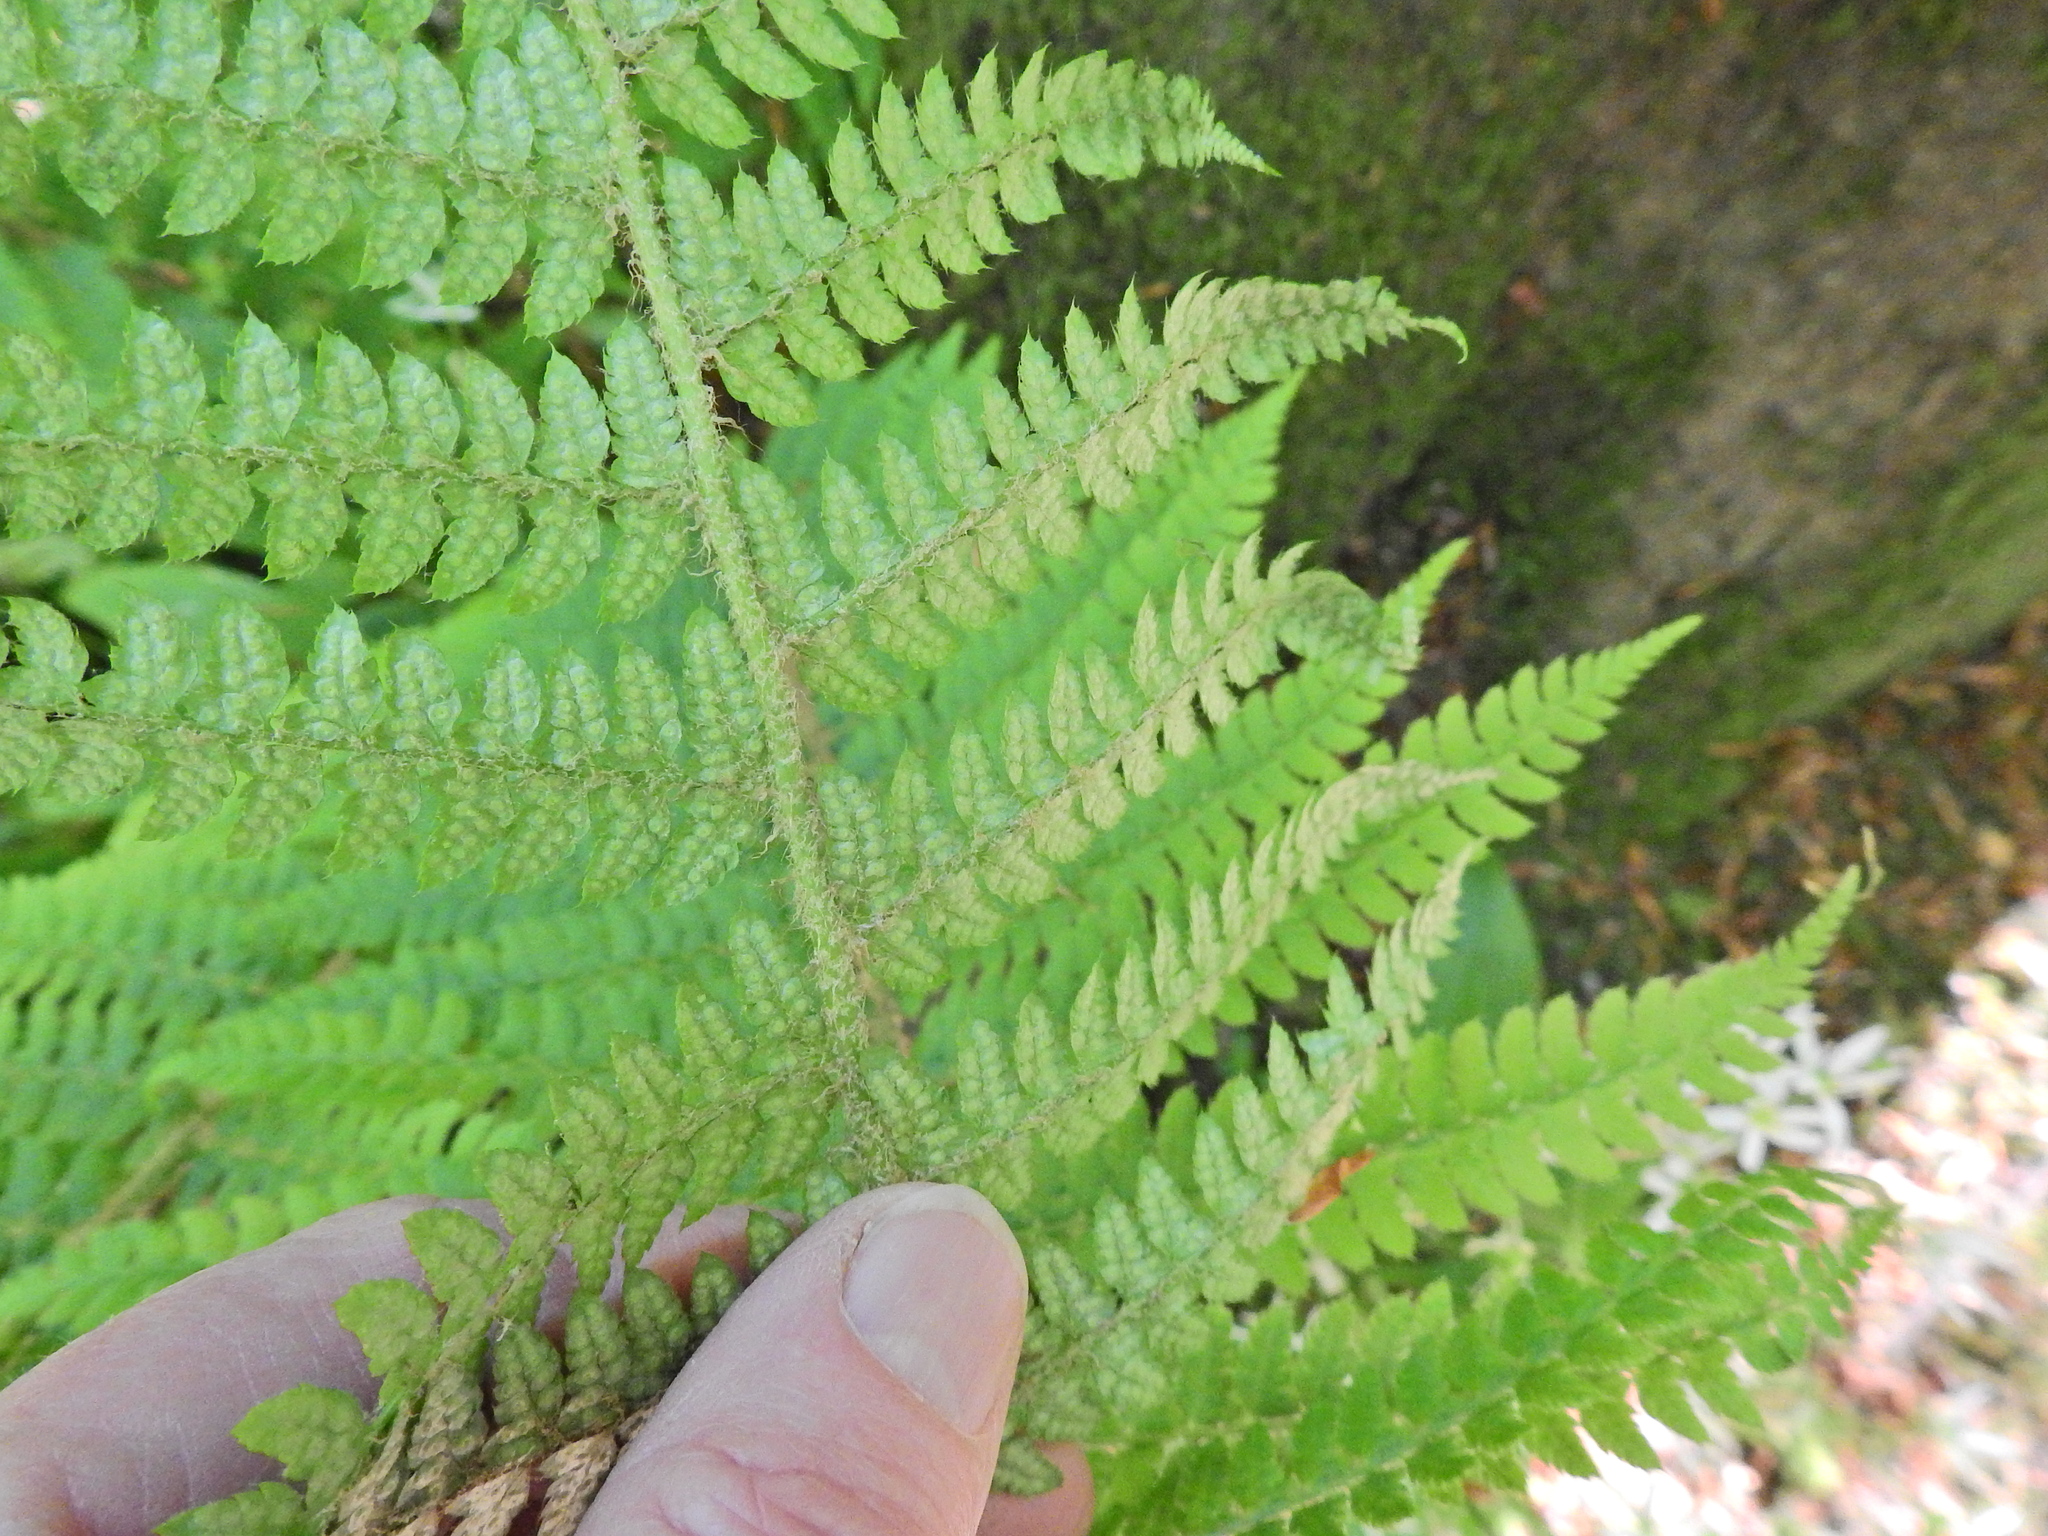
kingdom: Plantae
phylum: Tracheophyta
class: Polypodiopsida
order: Polypodiales
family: Dryopteridaceae
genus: Polystichum
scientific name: Polystichum setiferum
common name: Soft shield-fern
